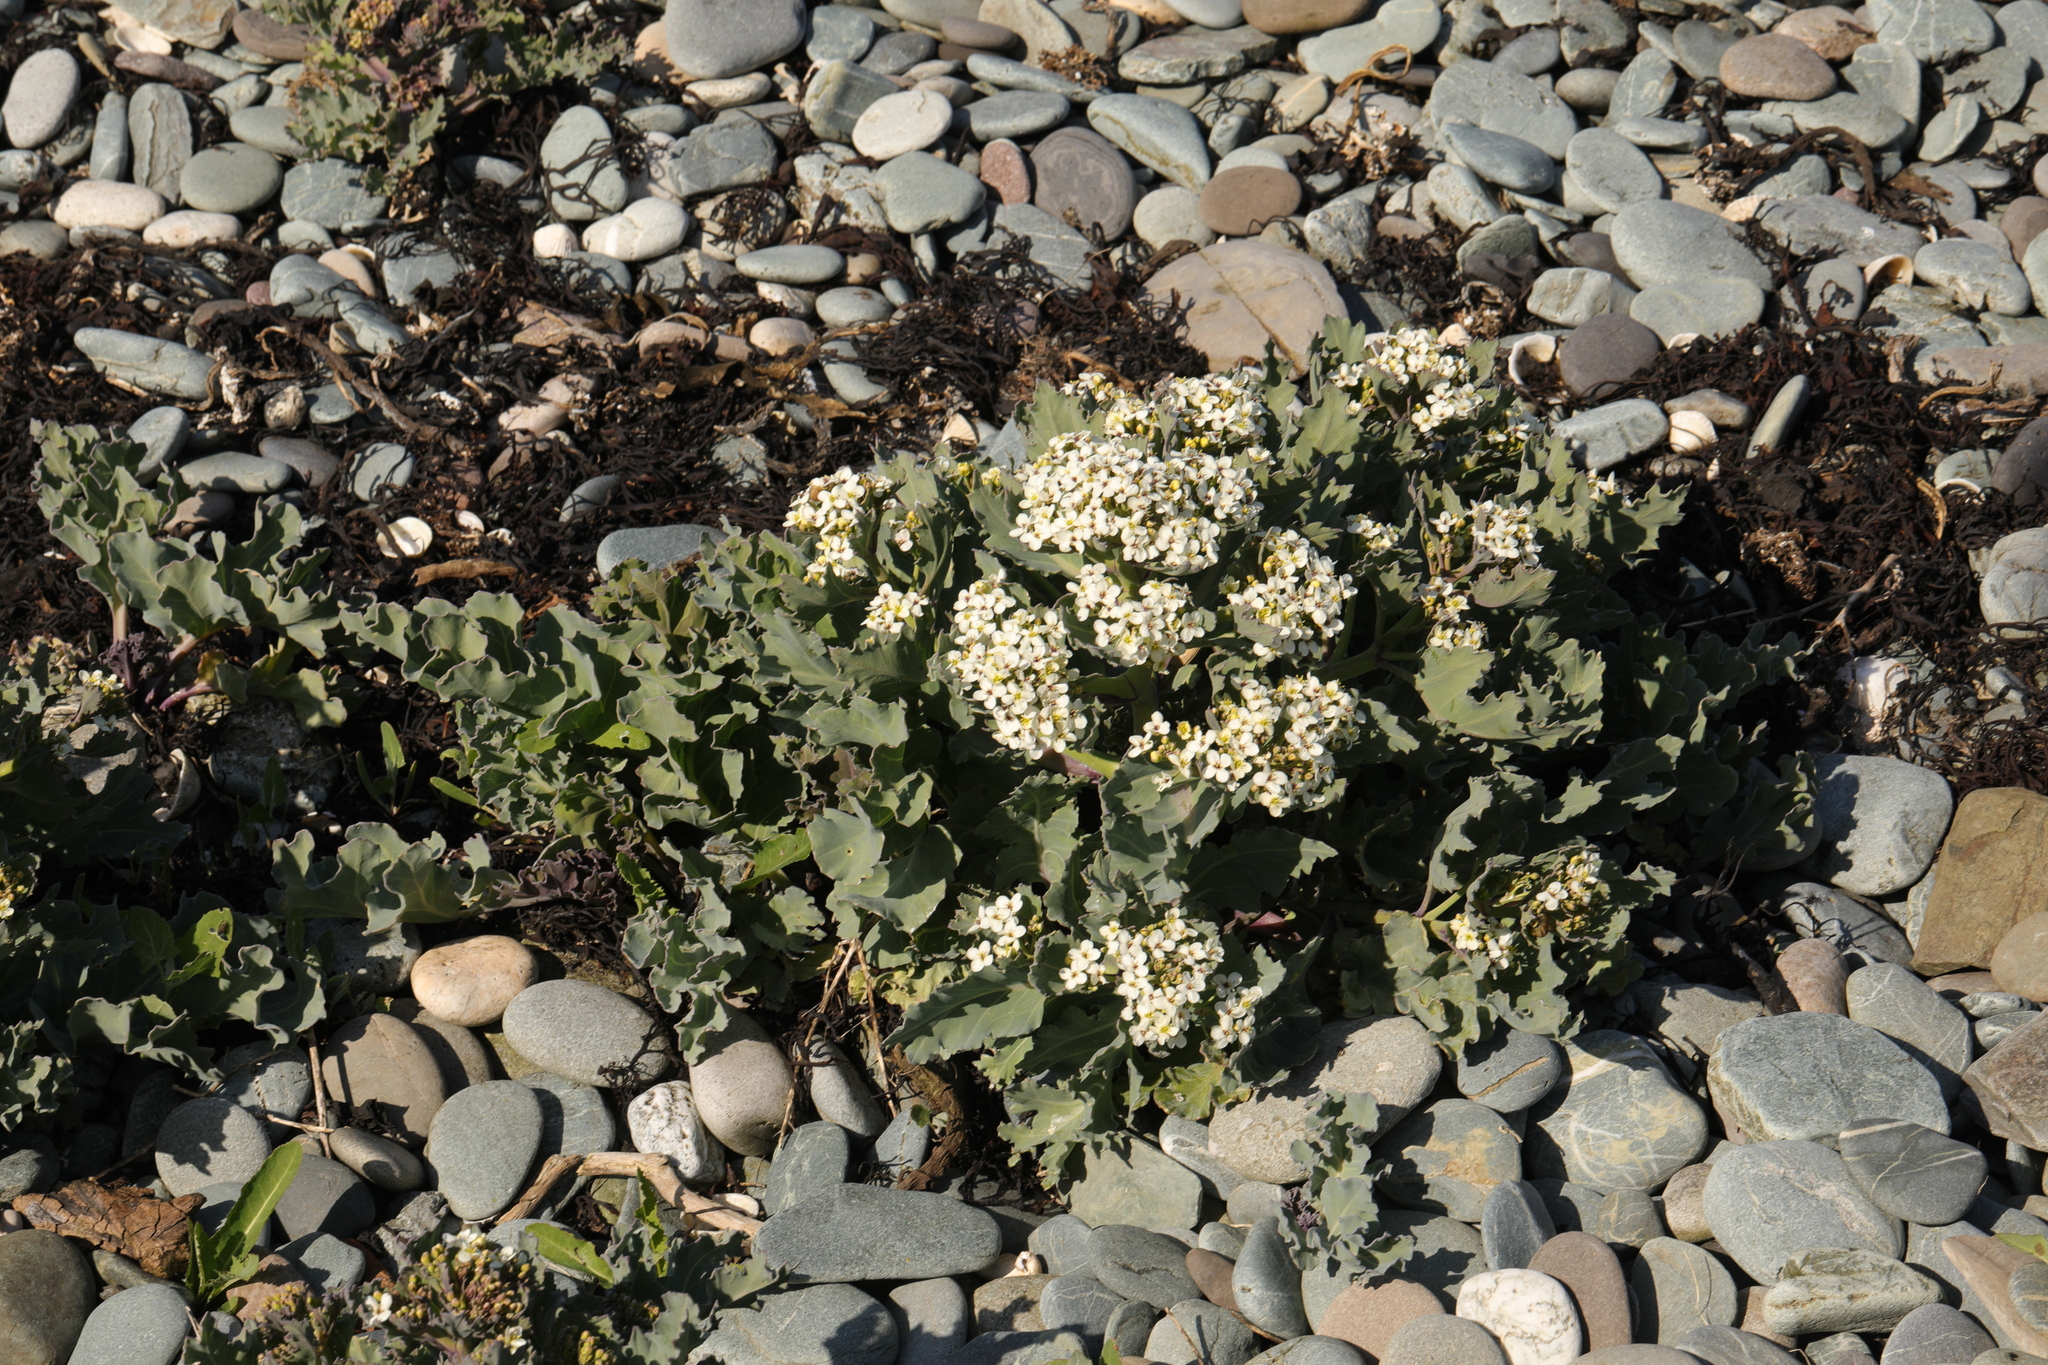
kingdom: Plantae
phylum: Tracheophyta
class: Magnoliopsida
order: Brassicales
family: Brassicaceae
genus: Crambe
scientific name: Crambe maritima
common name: Sea-kale
